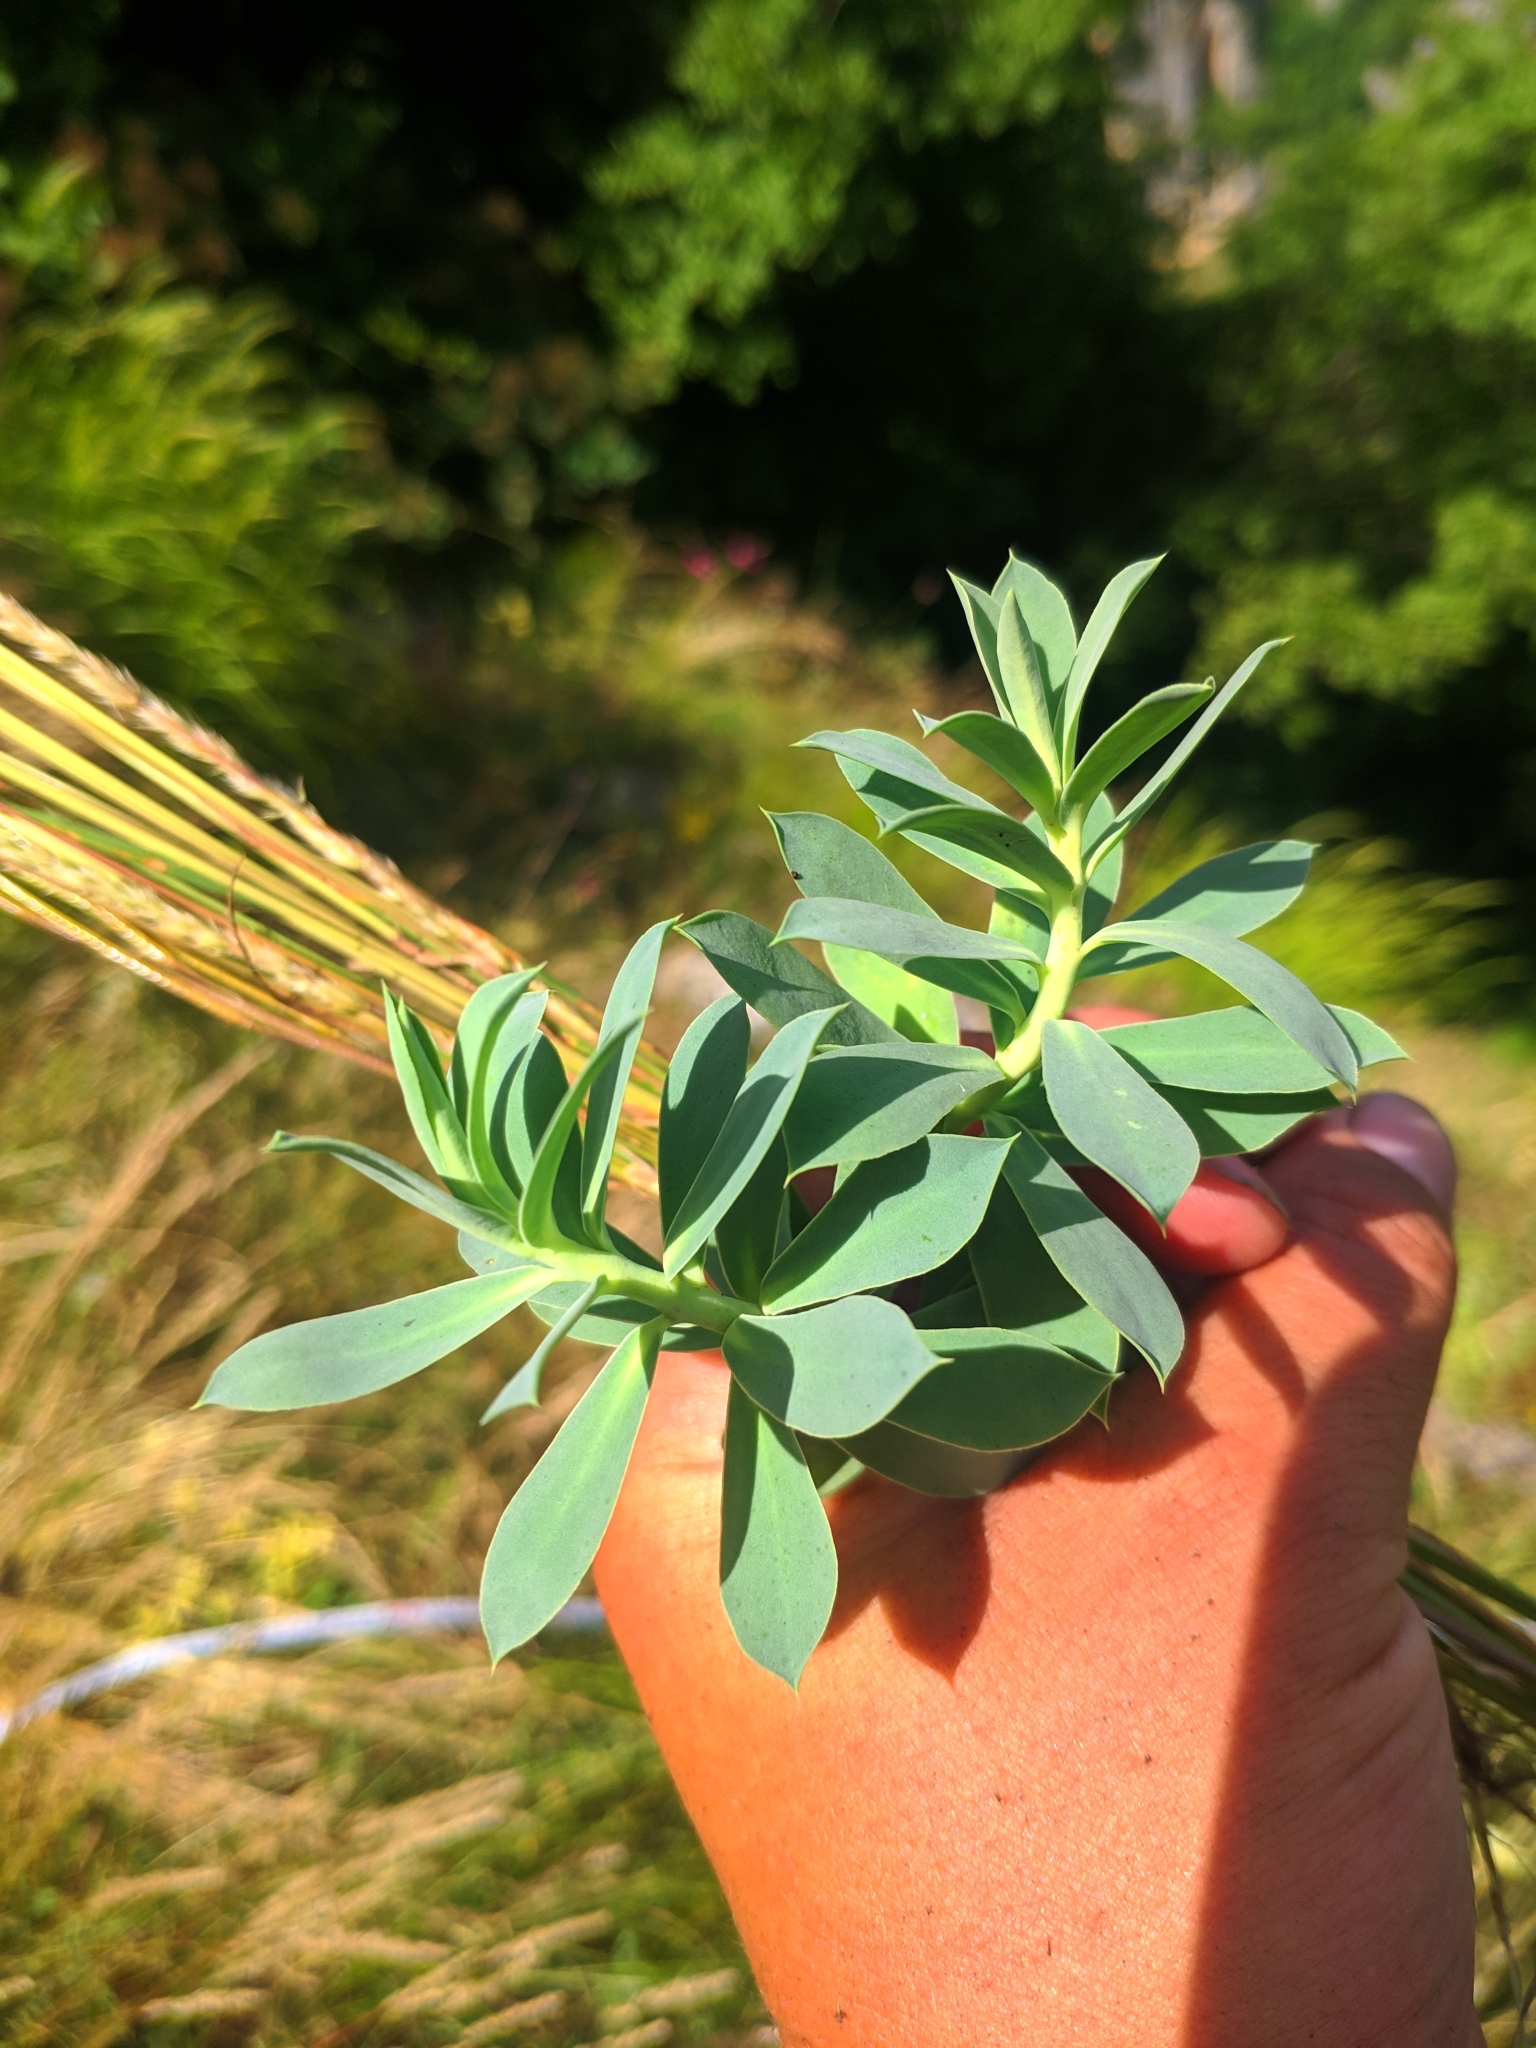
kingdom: Plantae
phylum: Tracheophyta
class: Magnoliopsida
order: Malpighiales
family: Euphorbiaceae
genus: Euphorbia
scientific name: Euphorbia myrsinites
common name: Myrtle spurge
